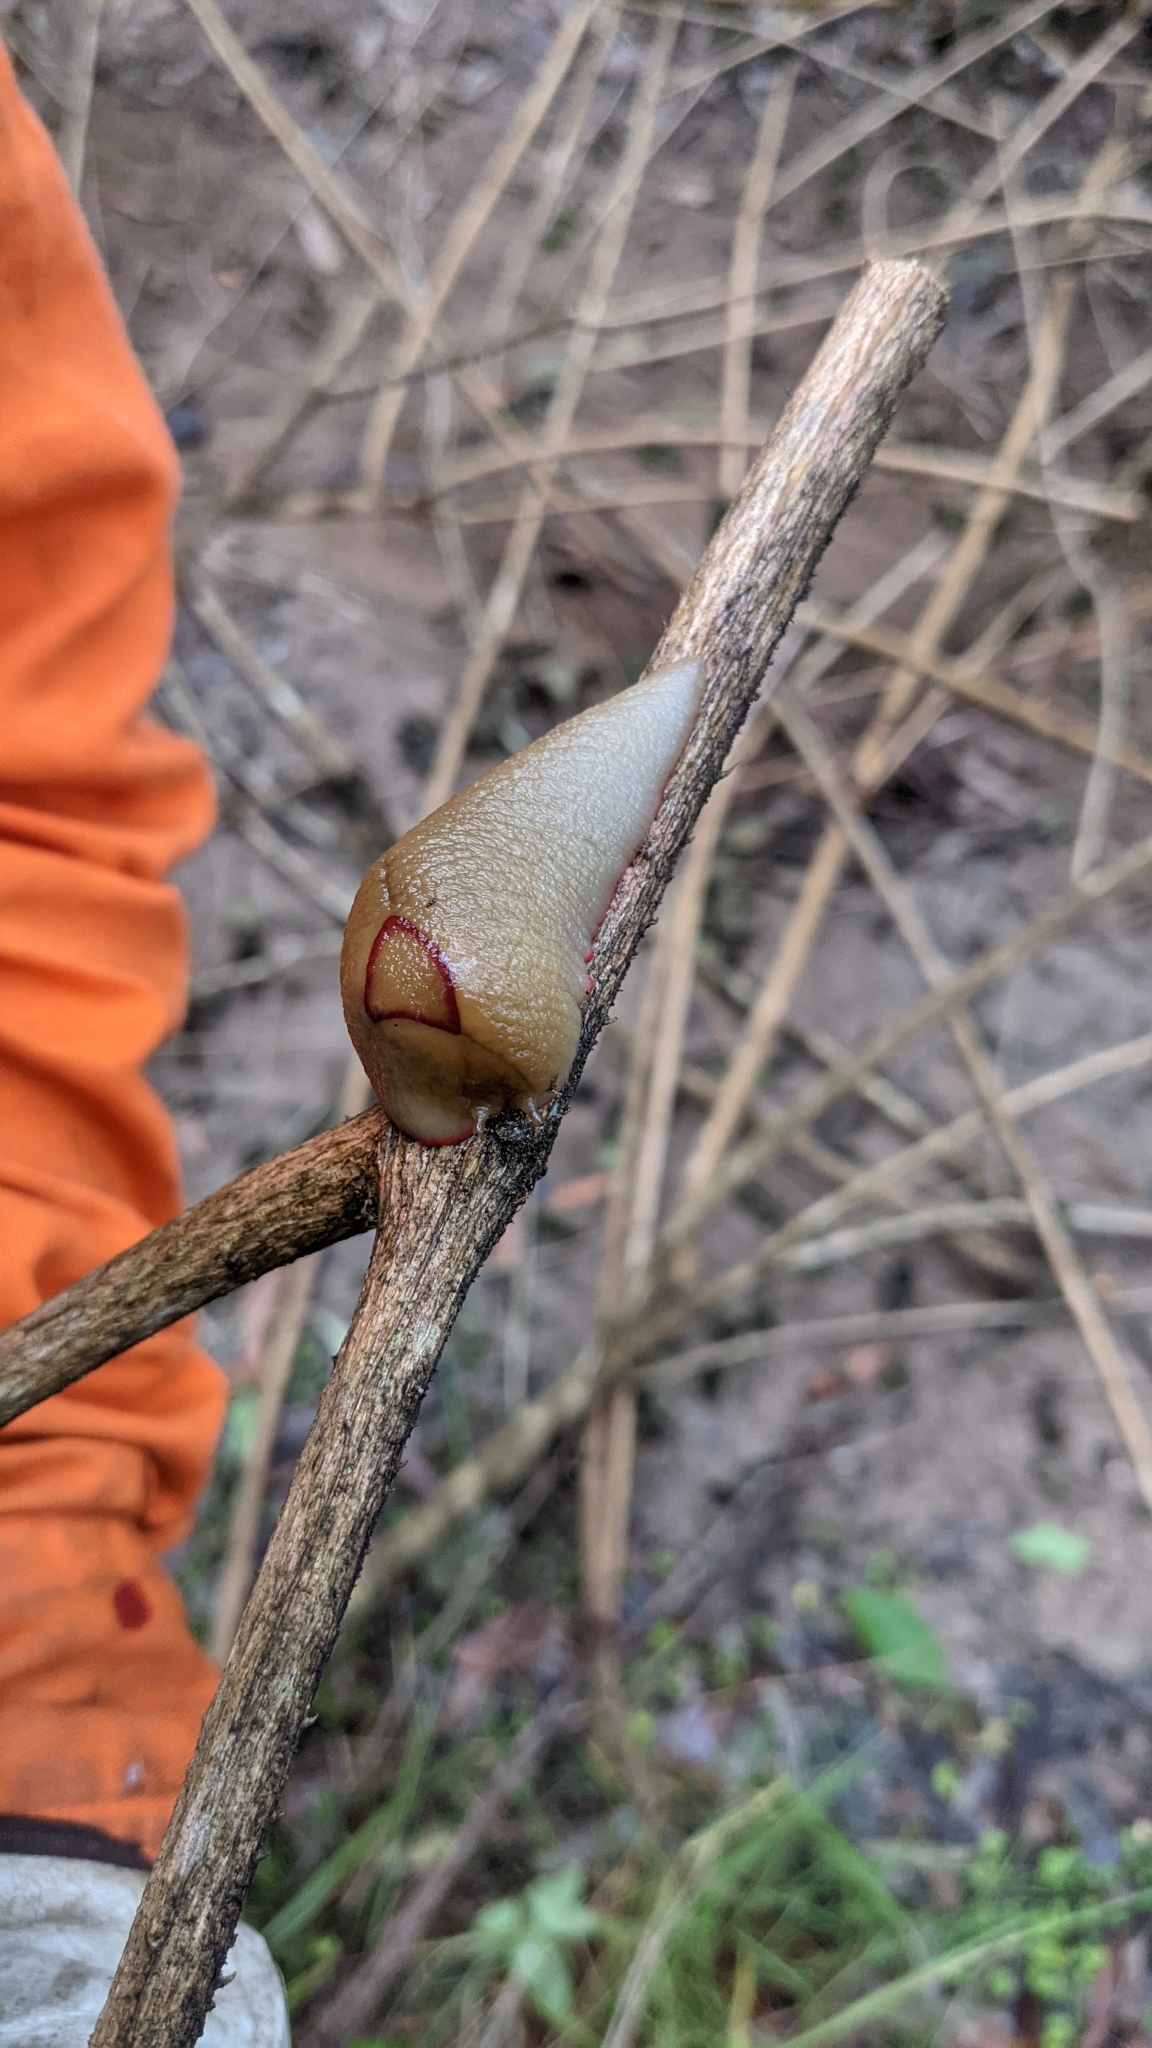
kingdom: Animalia
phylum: Mollusca
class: Gastropoda
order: Stylommatophora
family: Athoracophoridae
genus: Triboniophorus
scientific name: Triboniophorus graeffei
